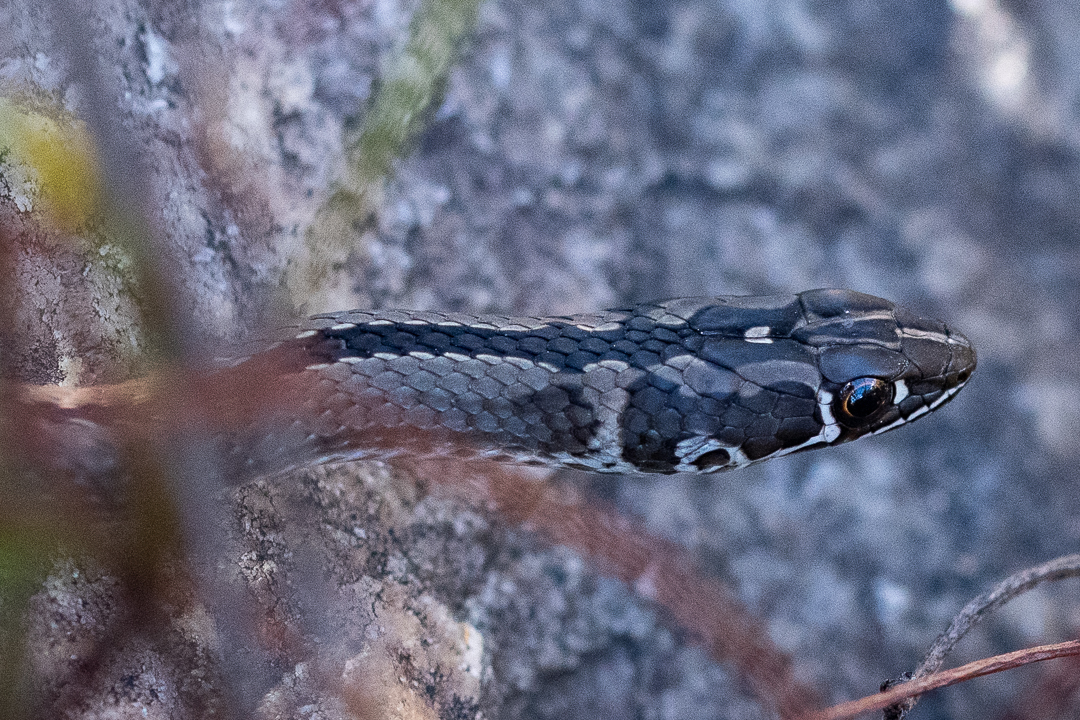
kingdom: Animalia
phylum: Chordata
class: Squamata
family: Psammophiidae
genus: Psammophis
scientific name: Psammophis crucifer
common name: Cross-marked grass snake
